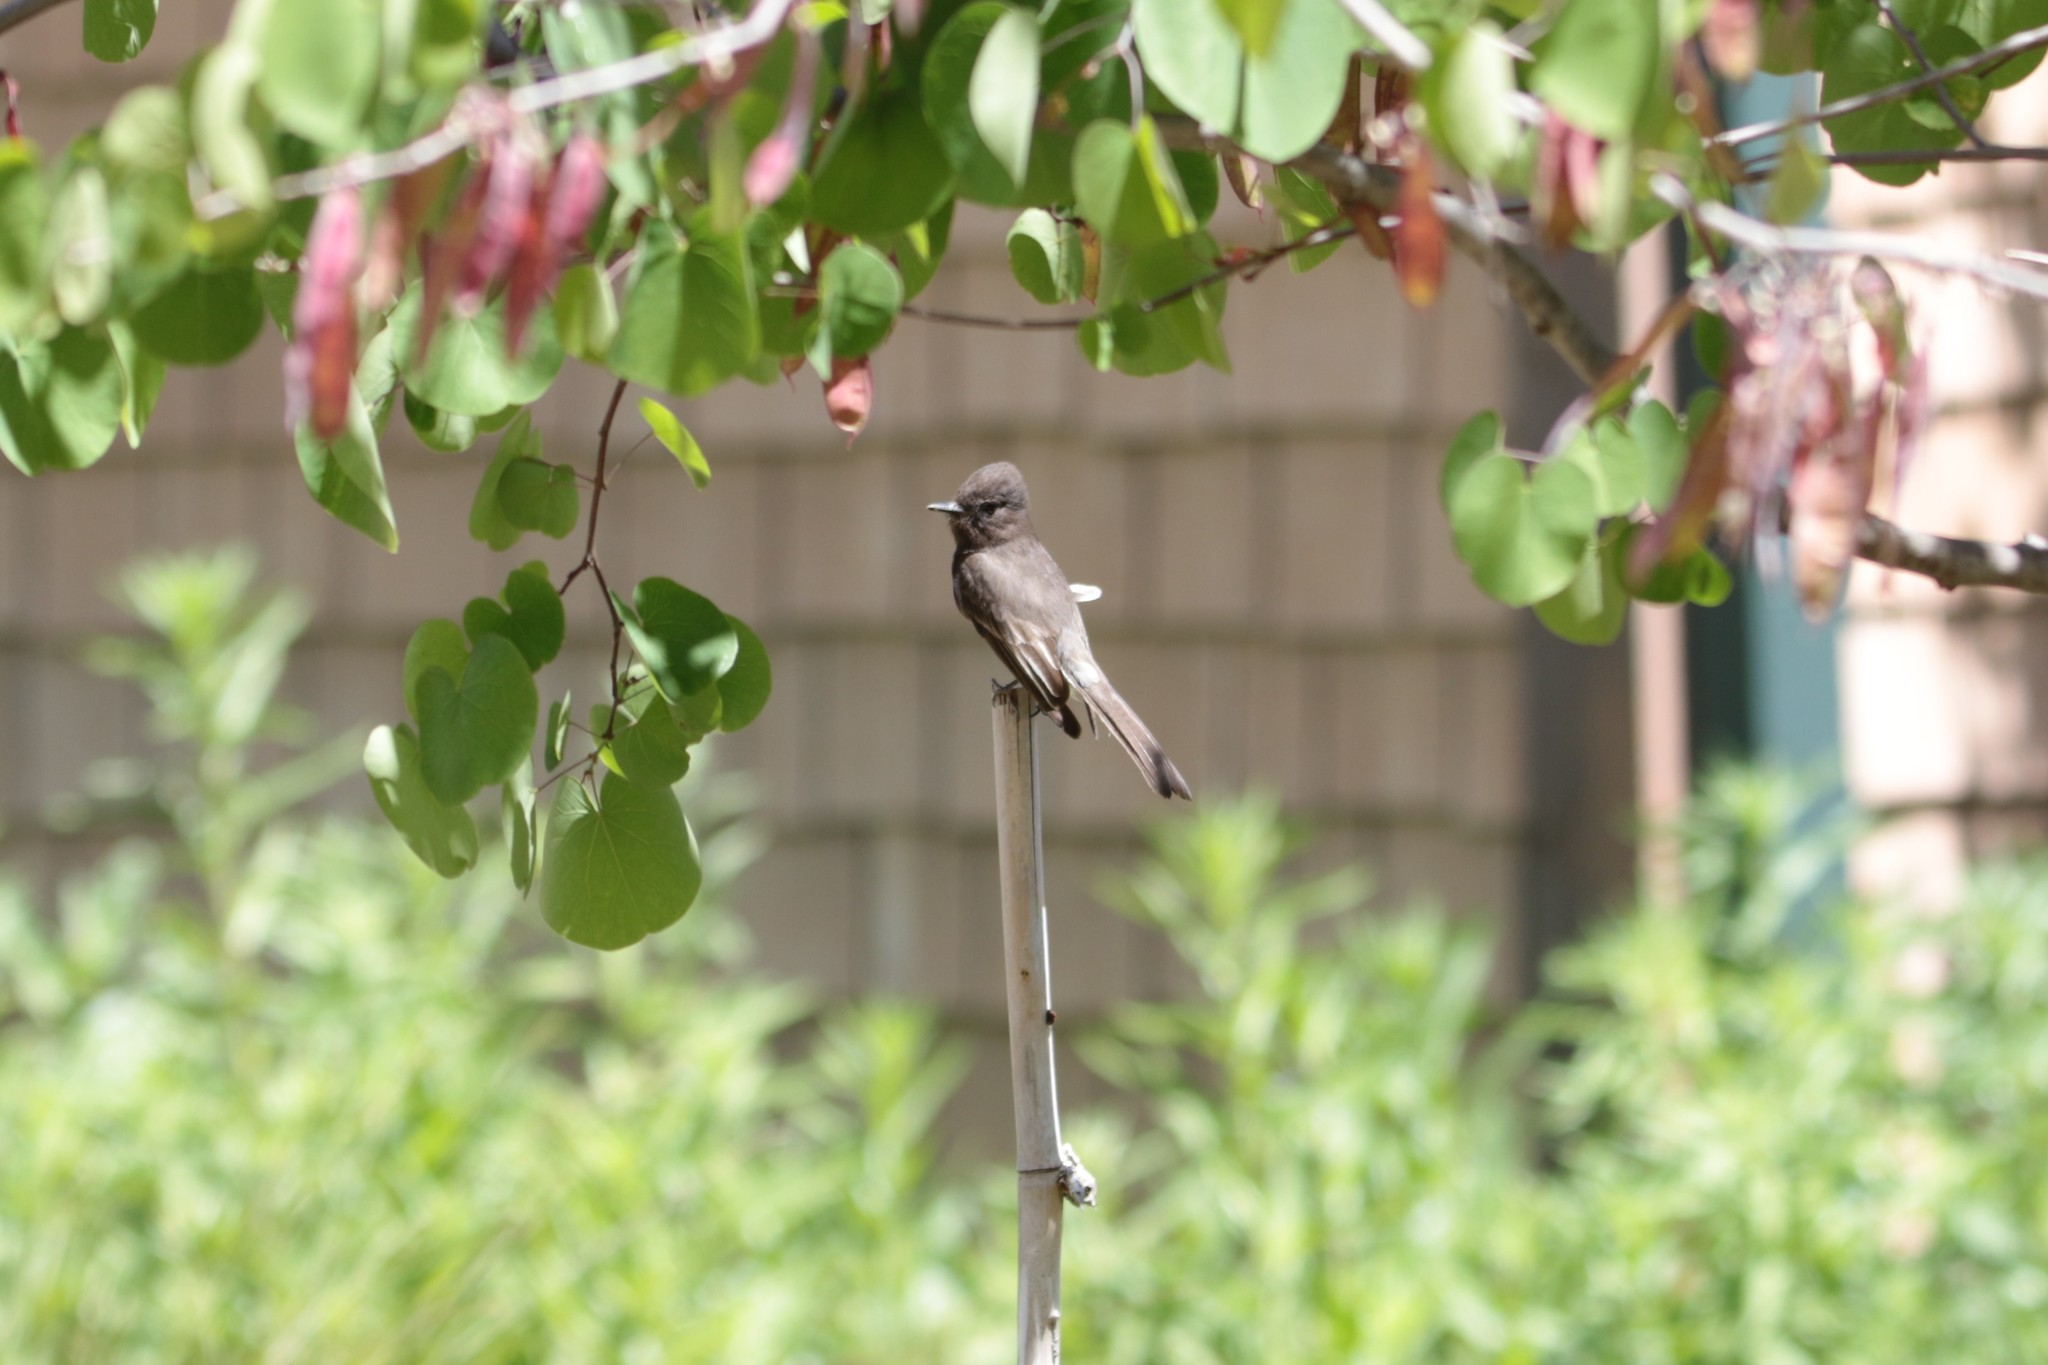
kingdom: Animalia
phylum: Chordata
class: Aves
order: Passeriformes
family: Tyrannidae
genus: Sayornis
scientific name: Sayornis nigricans
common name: Black phoebe
